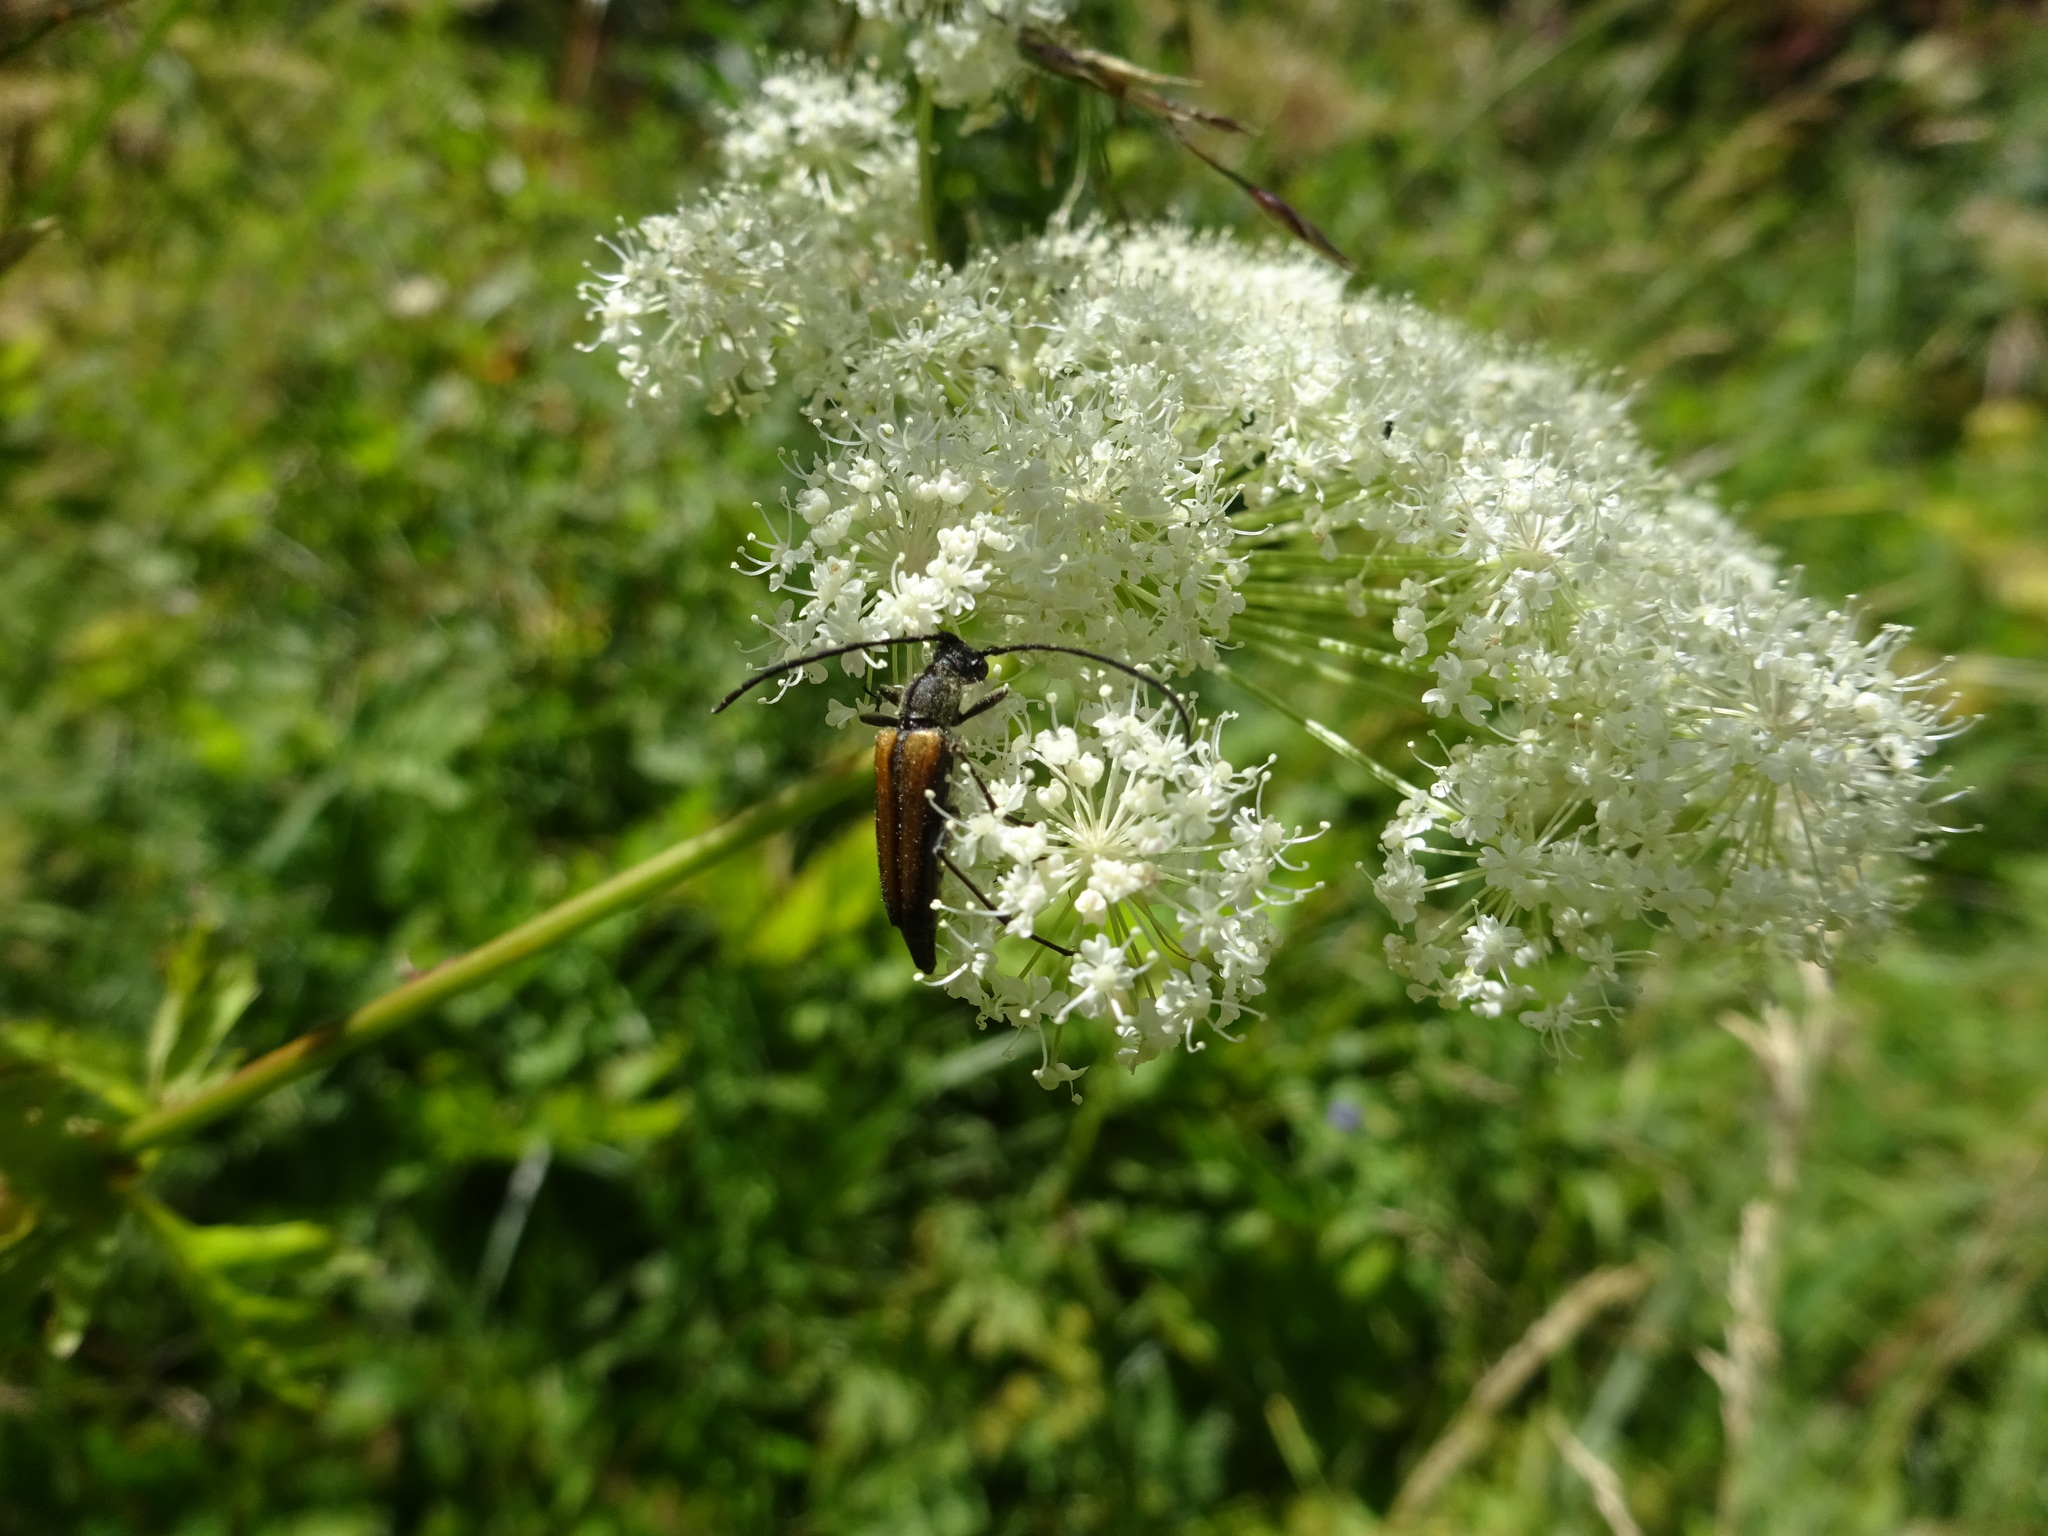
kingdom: Animalia
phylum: Arthropoda
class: Insecta
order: Coleoptera
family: Cerambycidae
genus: Paracorymbia
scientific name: Paracorymbia hybrida
